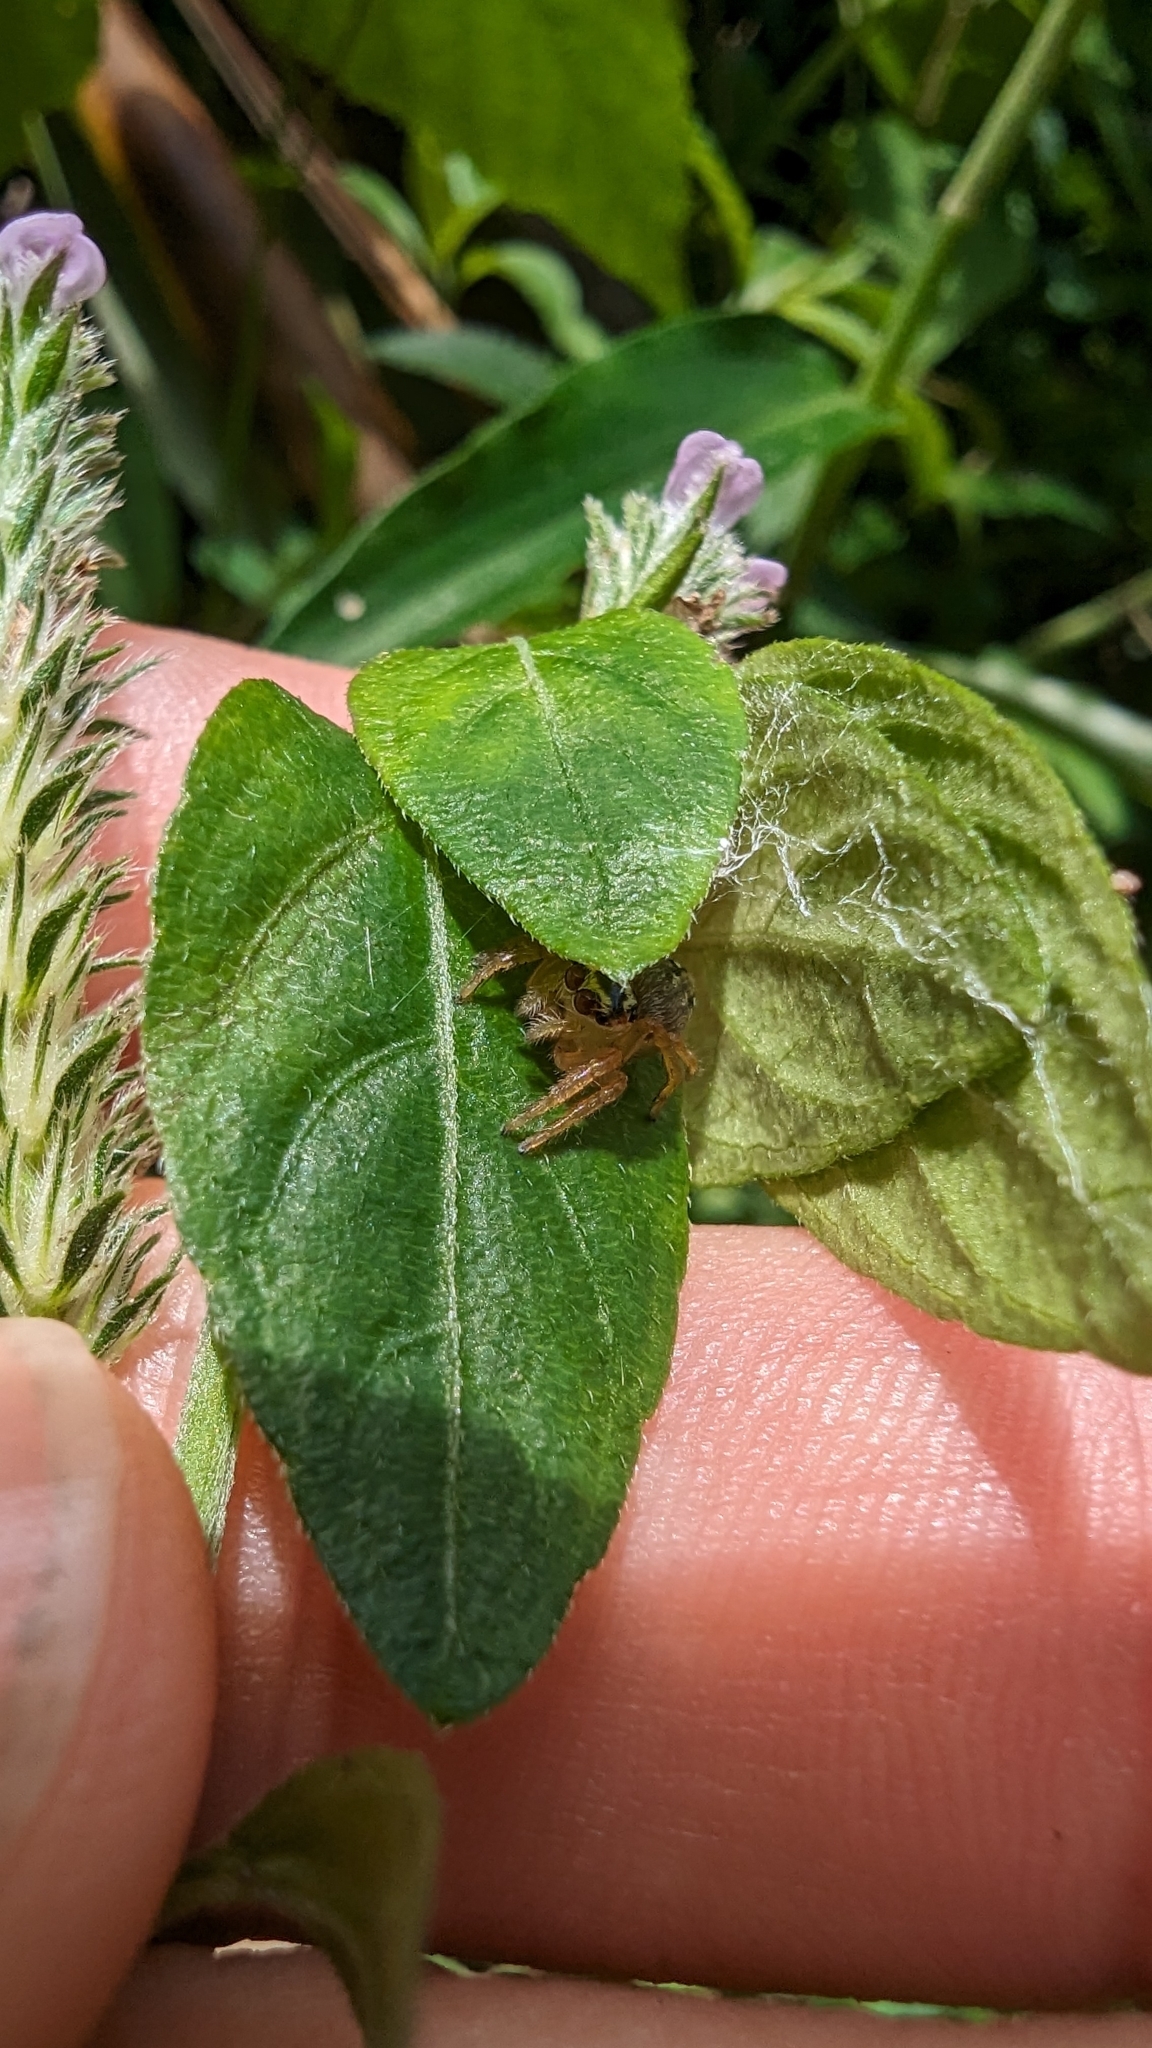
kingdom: Plantae
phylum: Tracheophyta
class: Magnoliopsida
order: Lamiales
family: Acanthaceae
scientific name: Acanthaceae
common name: Acanthaceae
